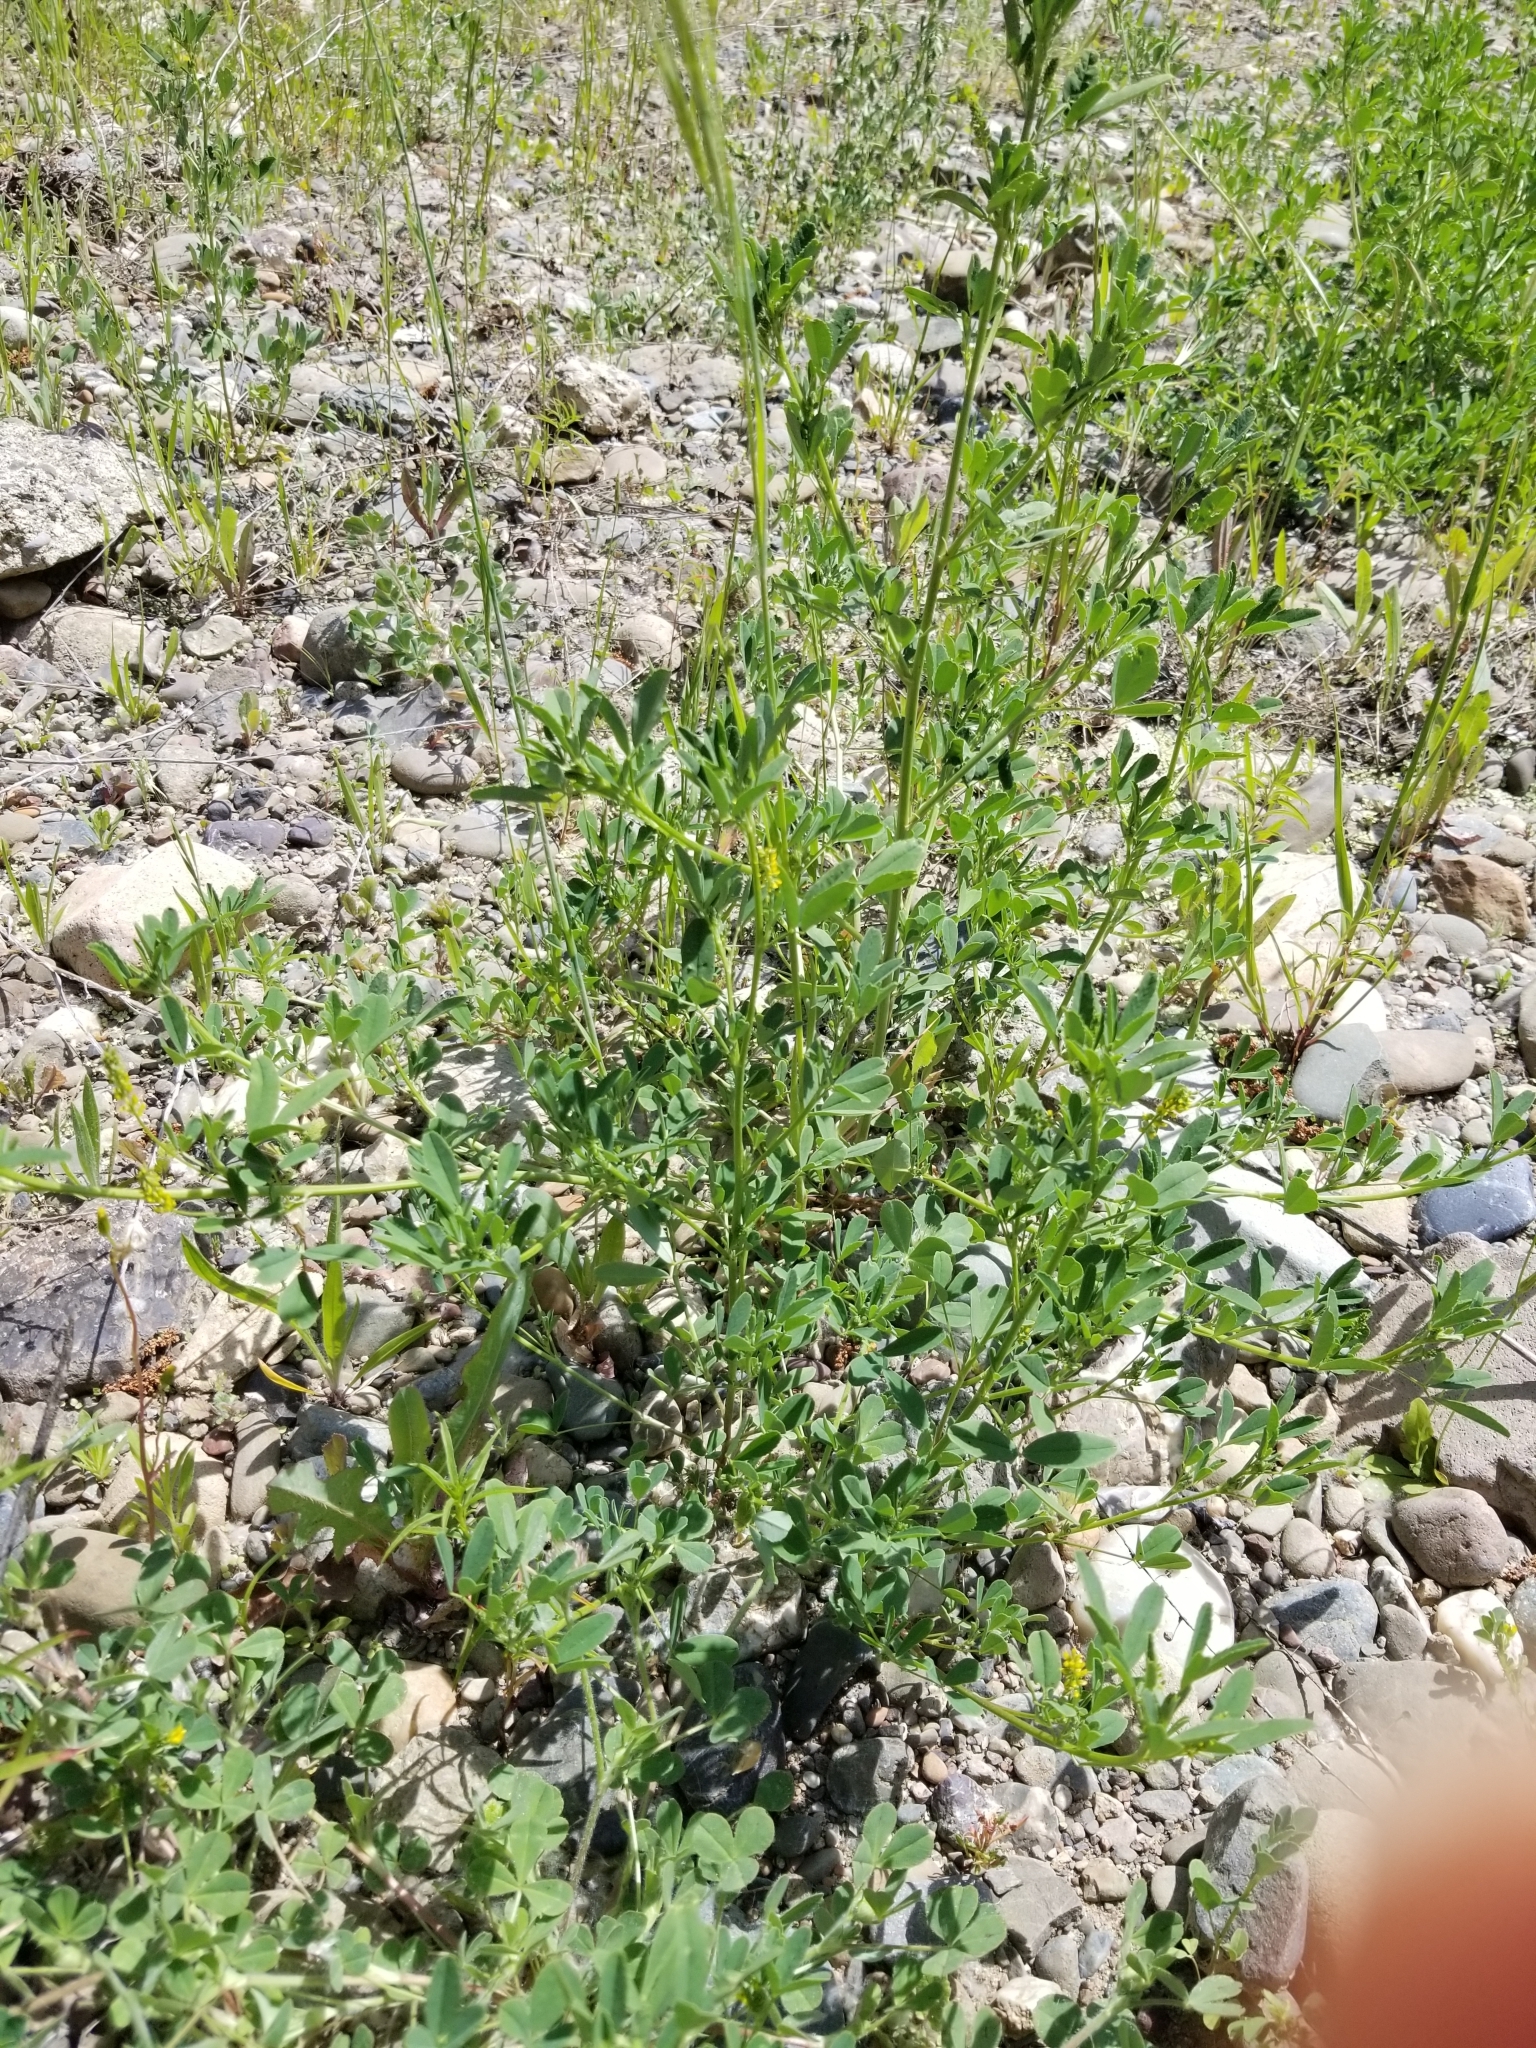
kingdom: Plantae
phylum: Tracheophyta
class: Magnoliopsida
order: Fabales
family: Fabaceae
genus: Melilotus
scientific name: Melilotus indicus
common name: Small melilot
